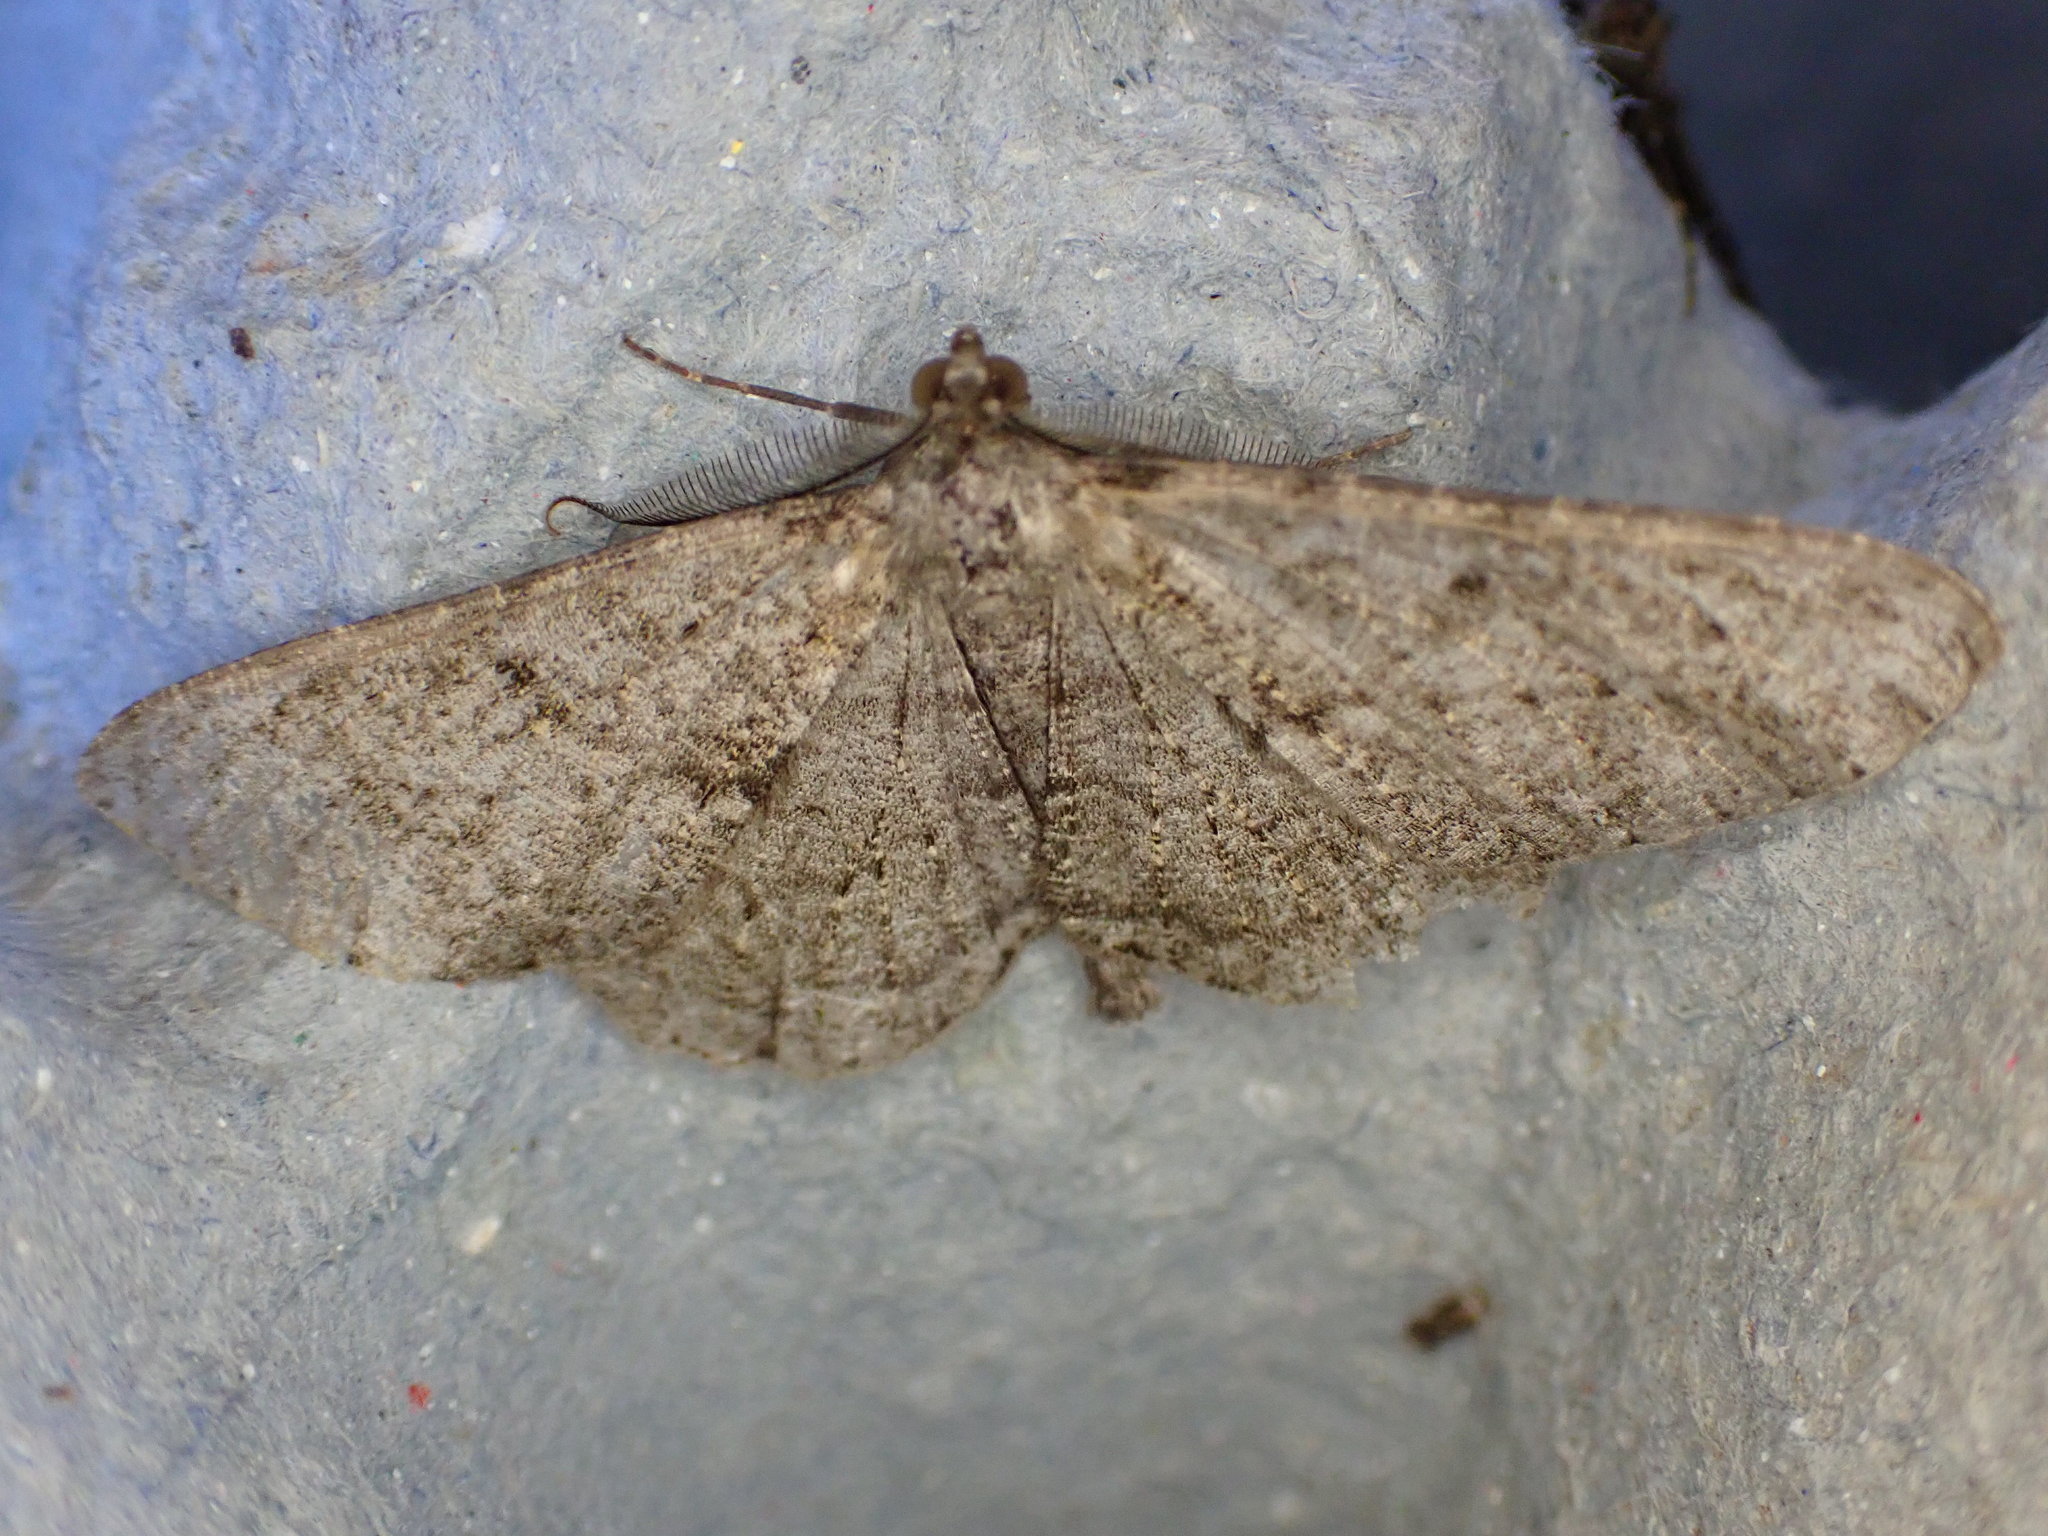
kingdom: Animalia
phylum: Arthropoda
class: Insecta
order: Lepidoptera
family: Geometridae
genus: Peribatodes
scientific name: Peribatodes rhomboidaria
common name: Willow beauty
